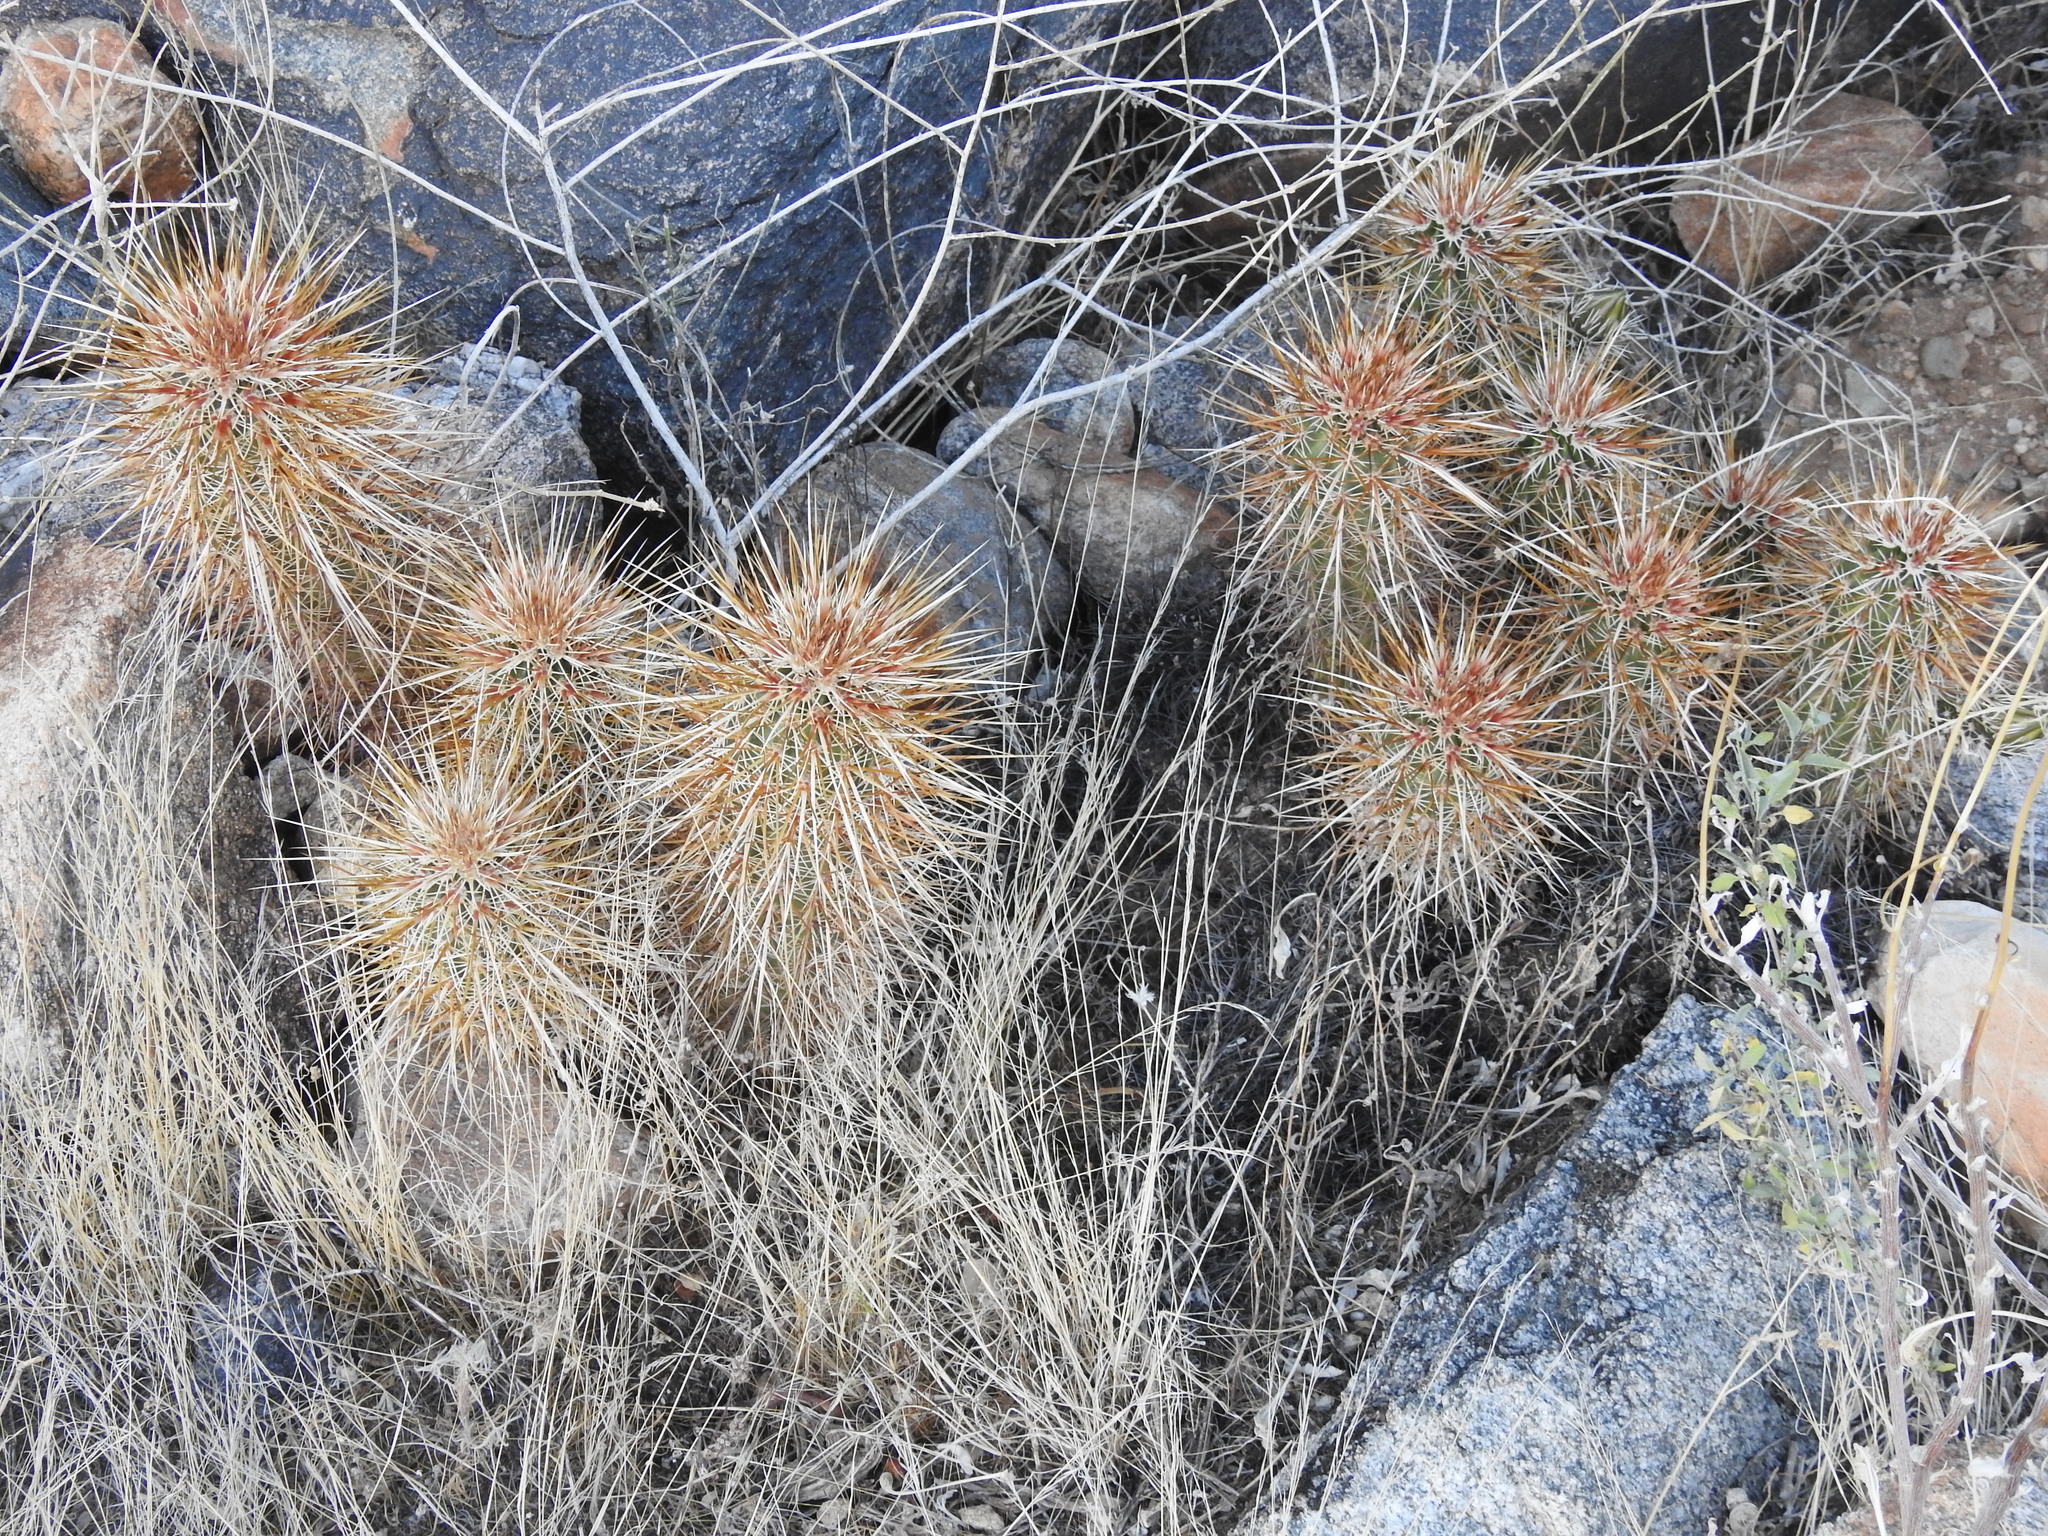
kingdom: Plantae
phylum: Tracheophyta
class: Magnoliopsida
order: Caryophyllales
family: Cactaceae
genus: Echinocereus
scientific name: Echinocereus engelmannii
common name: Engelmann's hedgehog cactus
